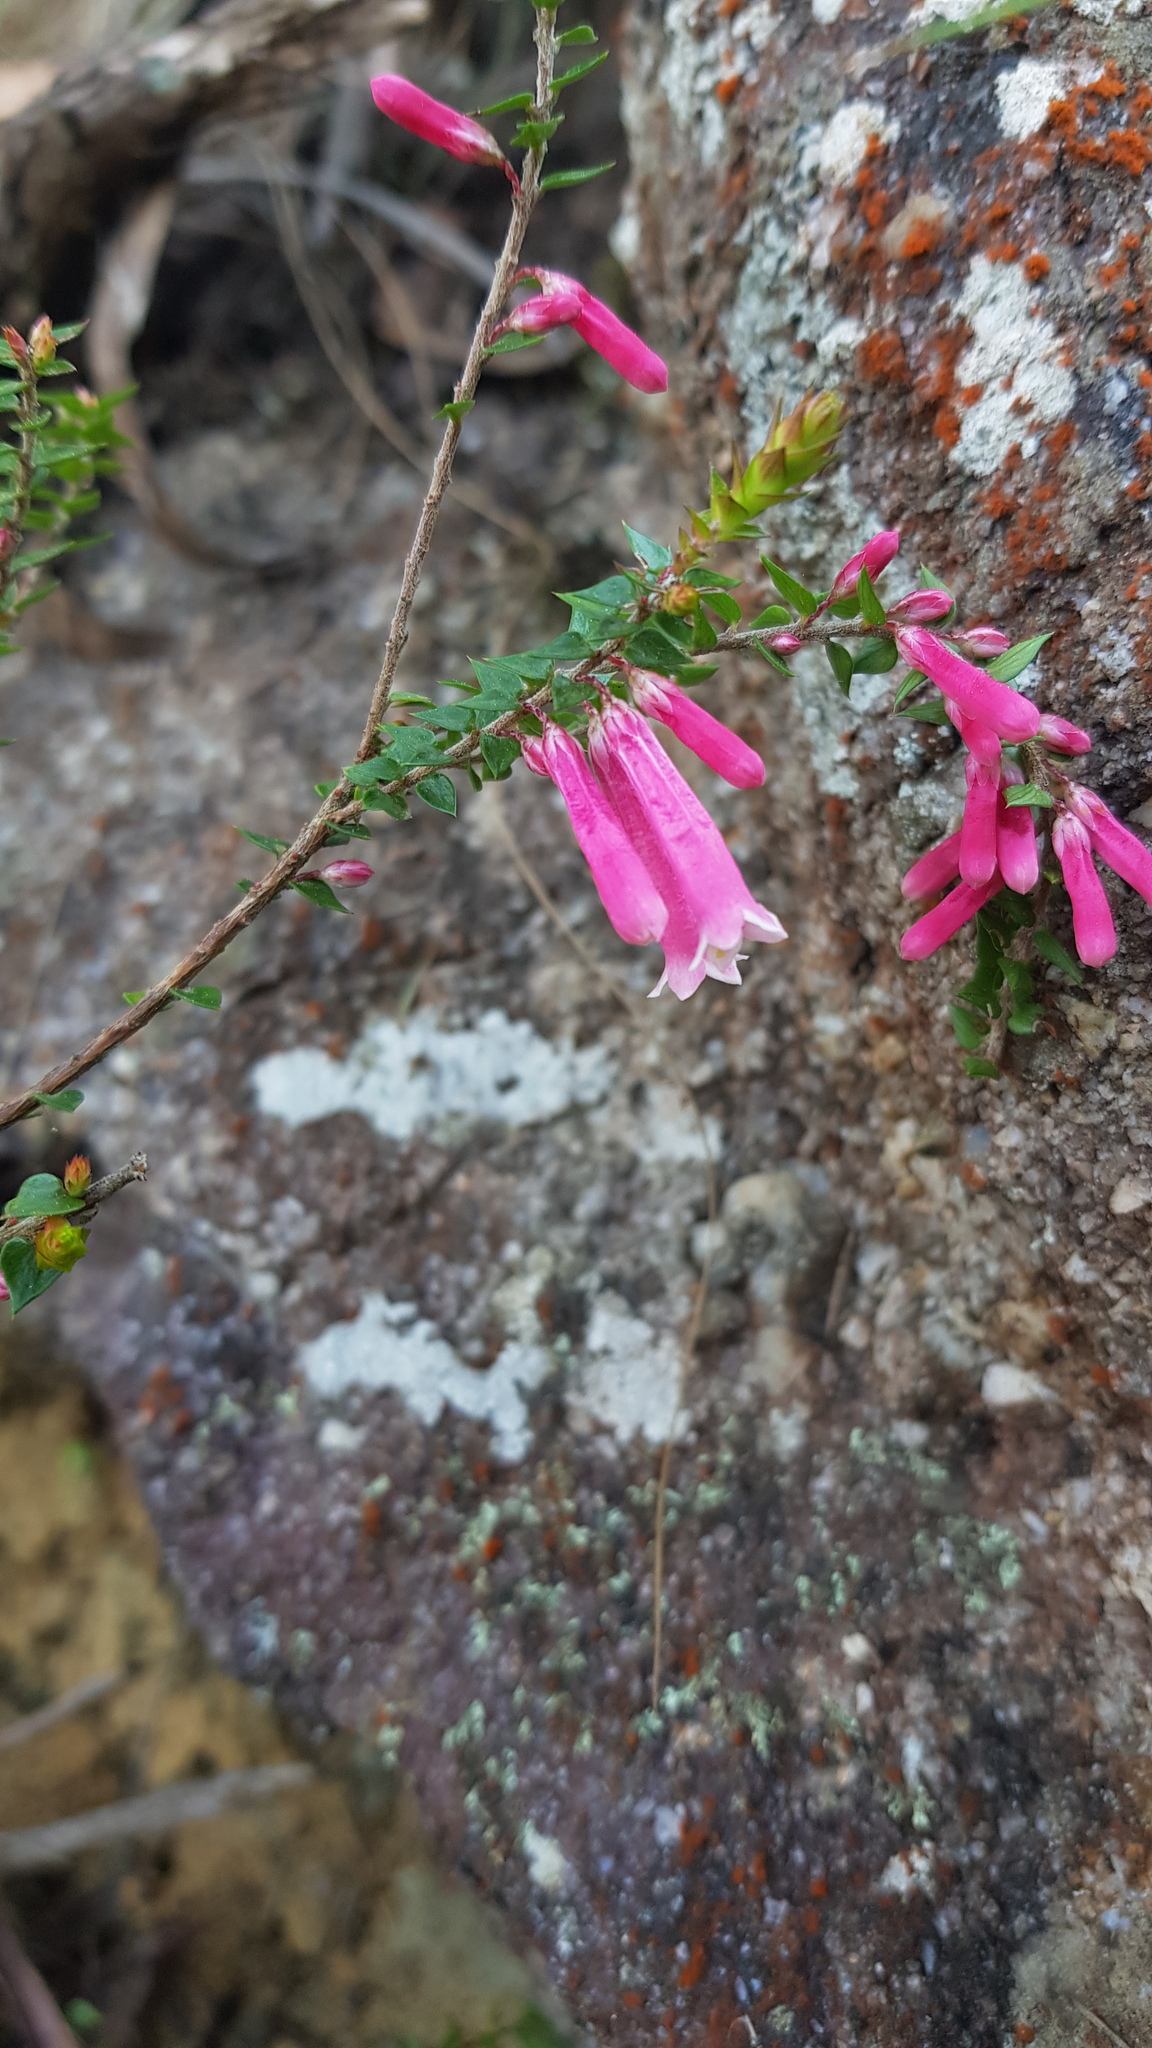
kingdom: Plantae
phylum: Tracheophyta
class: Magnoliopsida
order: Ericales
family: Ericaceae
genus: Epacris
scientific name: Epacris reclinata
